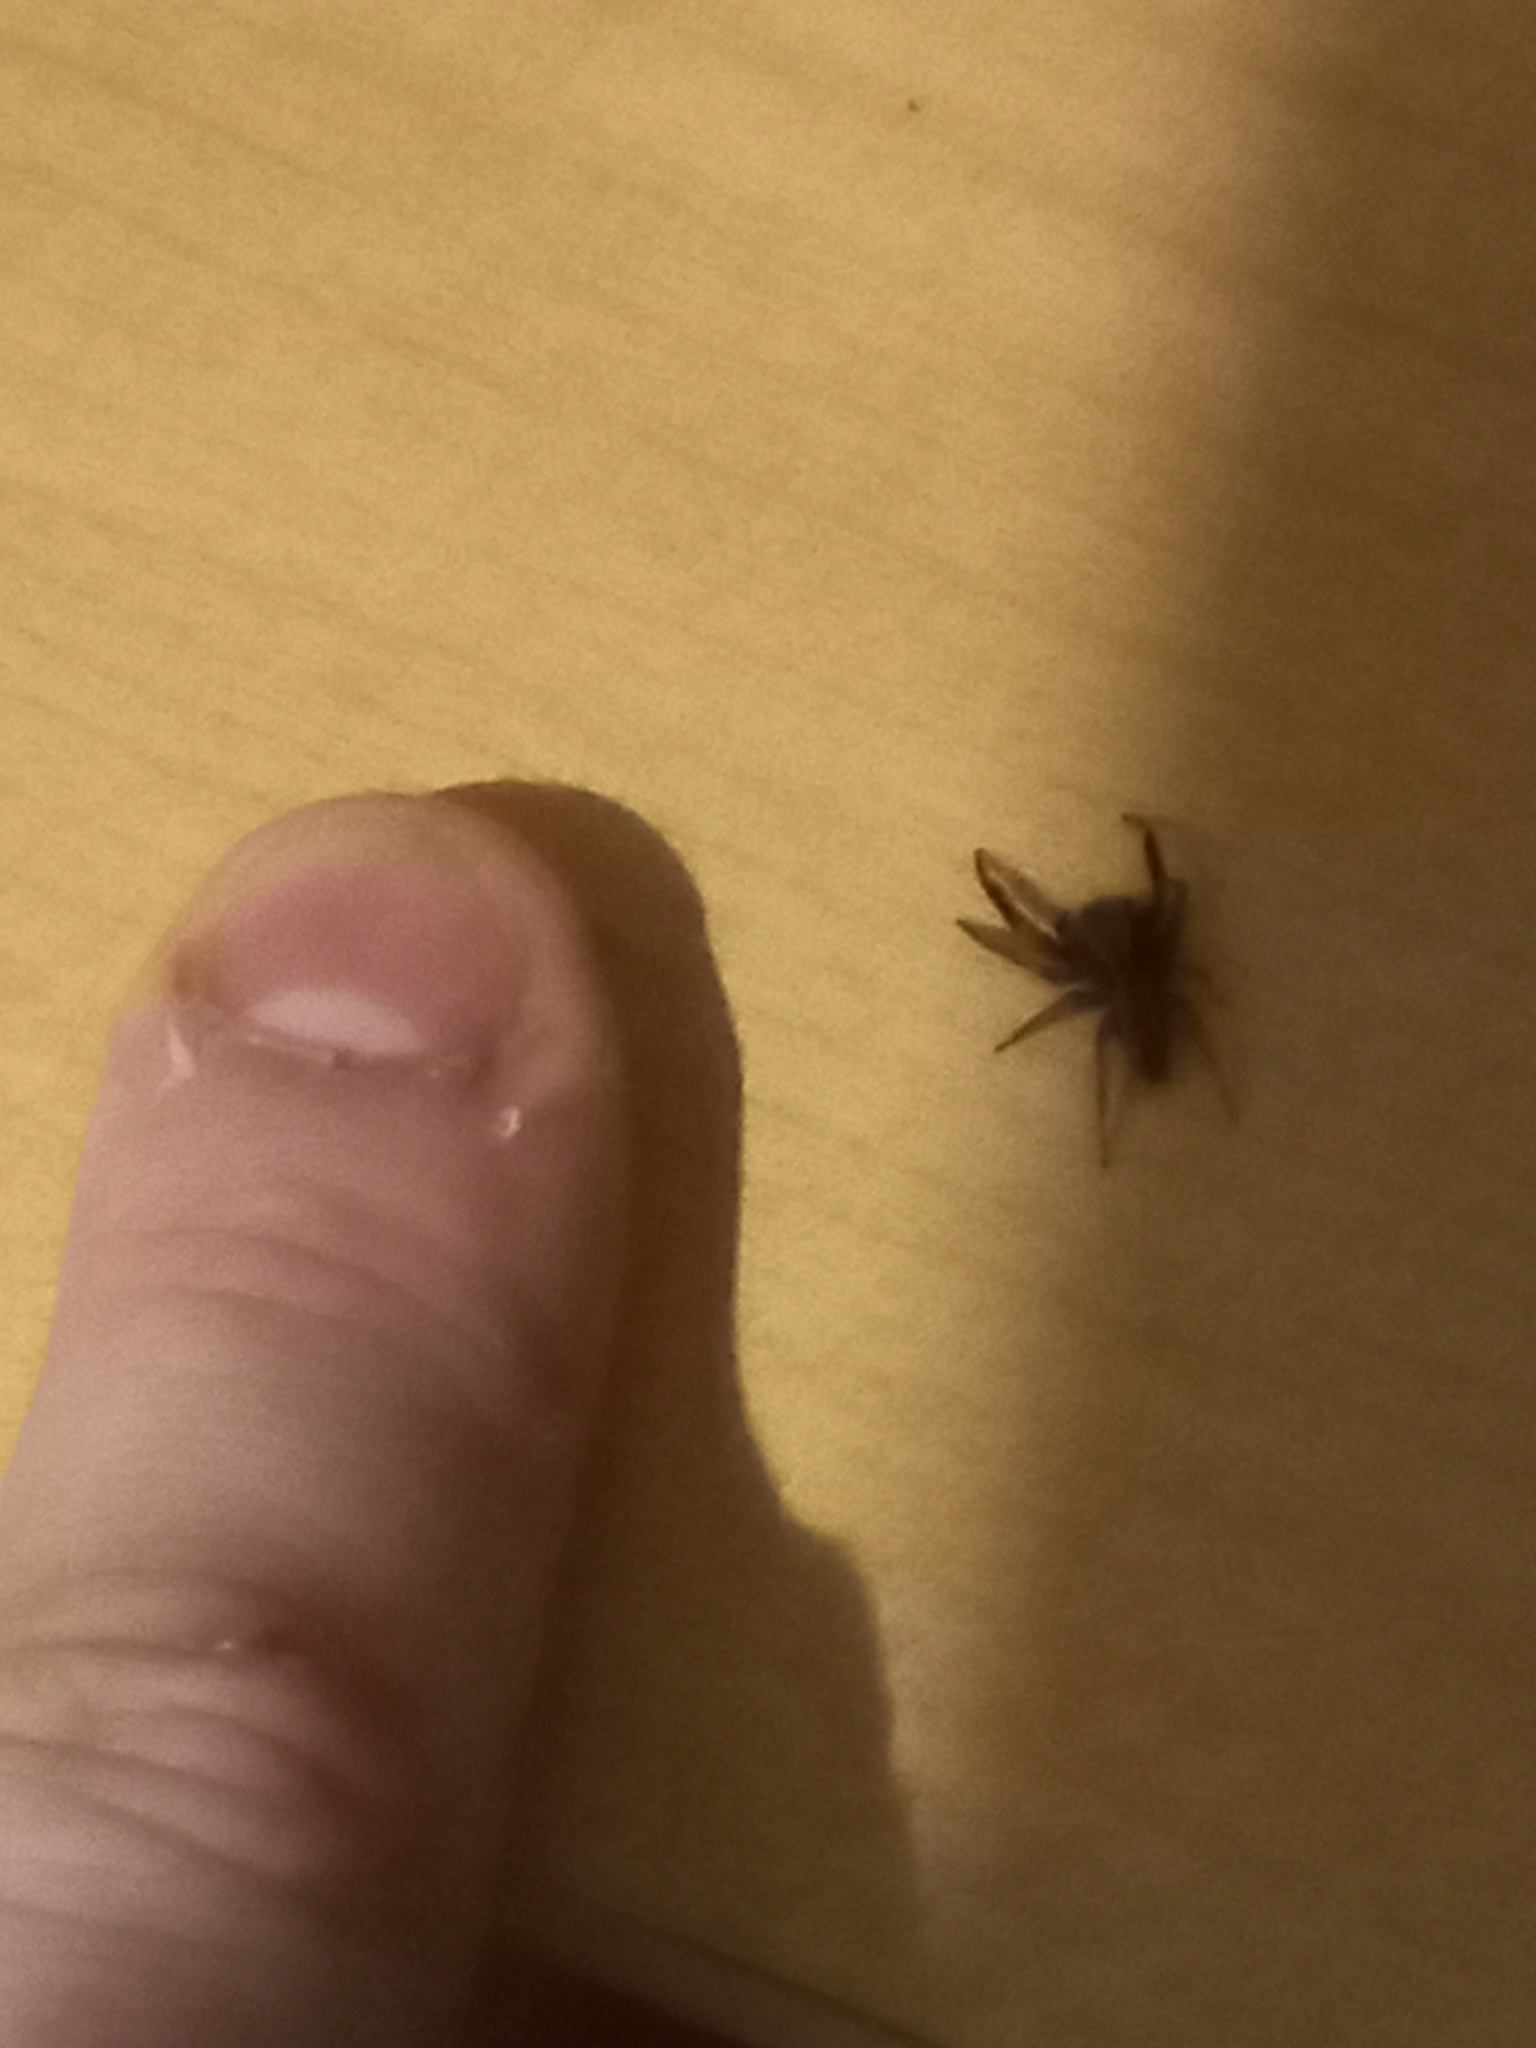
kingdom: Animalia
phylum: Arthropoda
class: Arachnida
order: Araneae
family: Salticidae
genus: Trite
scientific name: Trite auricoma
